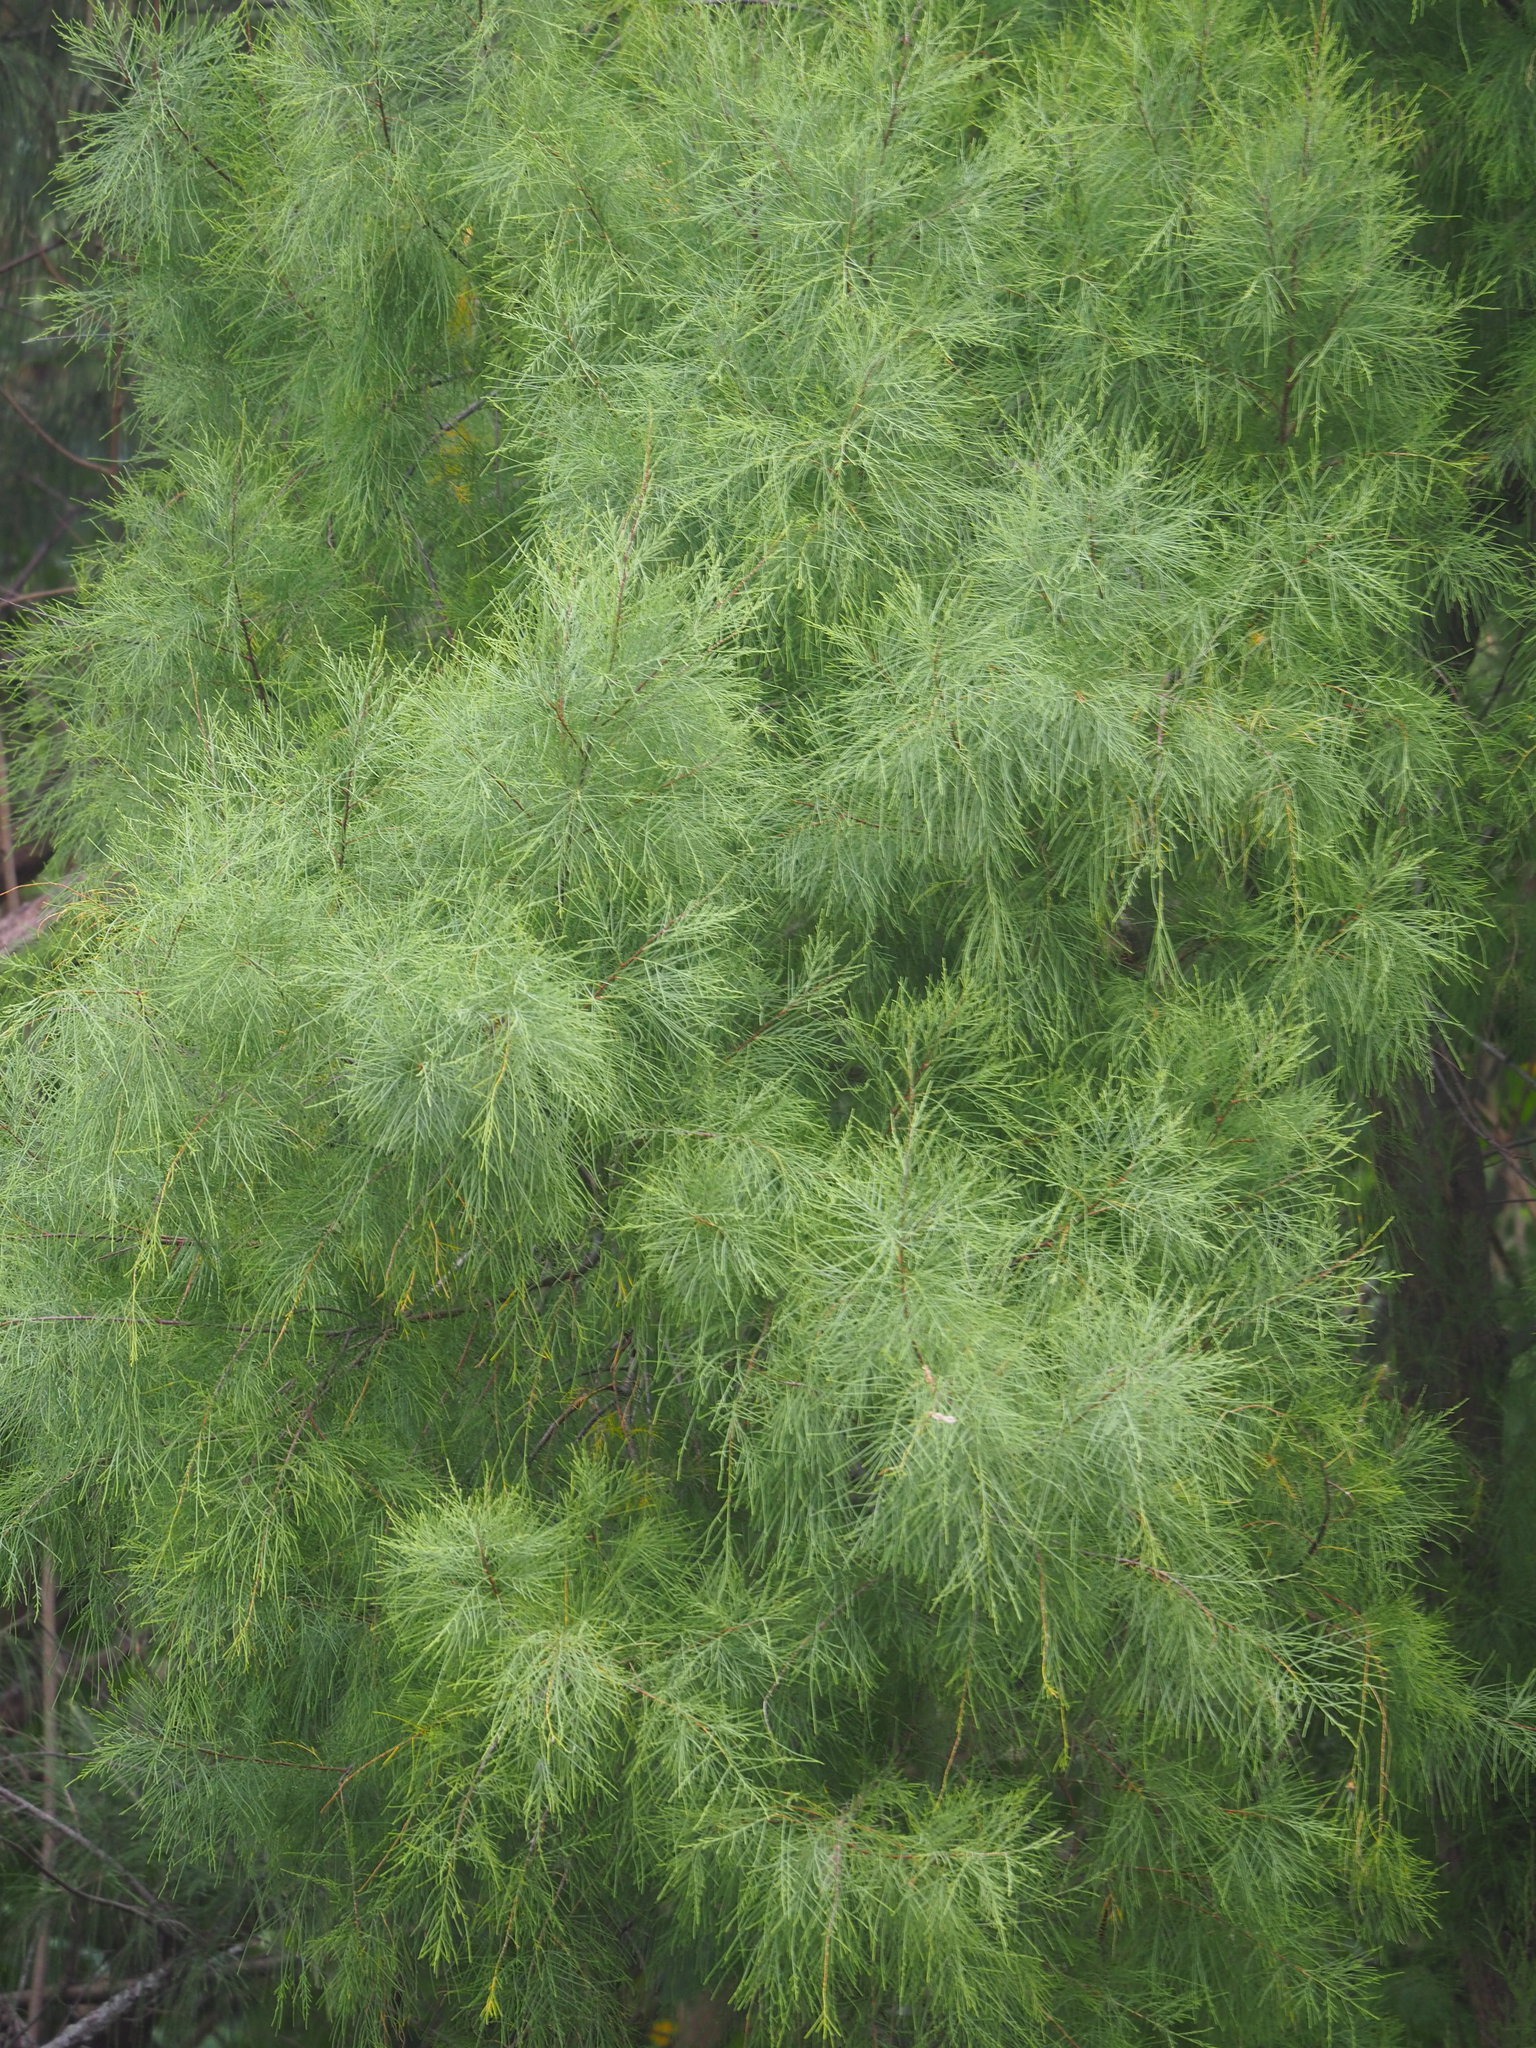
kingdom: Plantae
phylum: Tracheophyta
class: Magnoliopsida
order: Caryophyllales
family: Tamaricaceae
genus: Tamarix
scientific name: Tamarix aphylla
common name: Athel tamarisk
